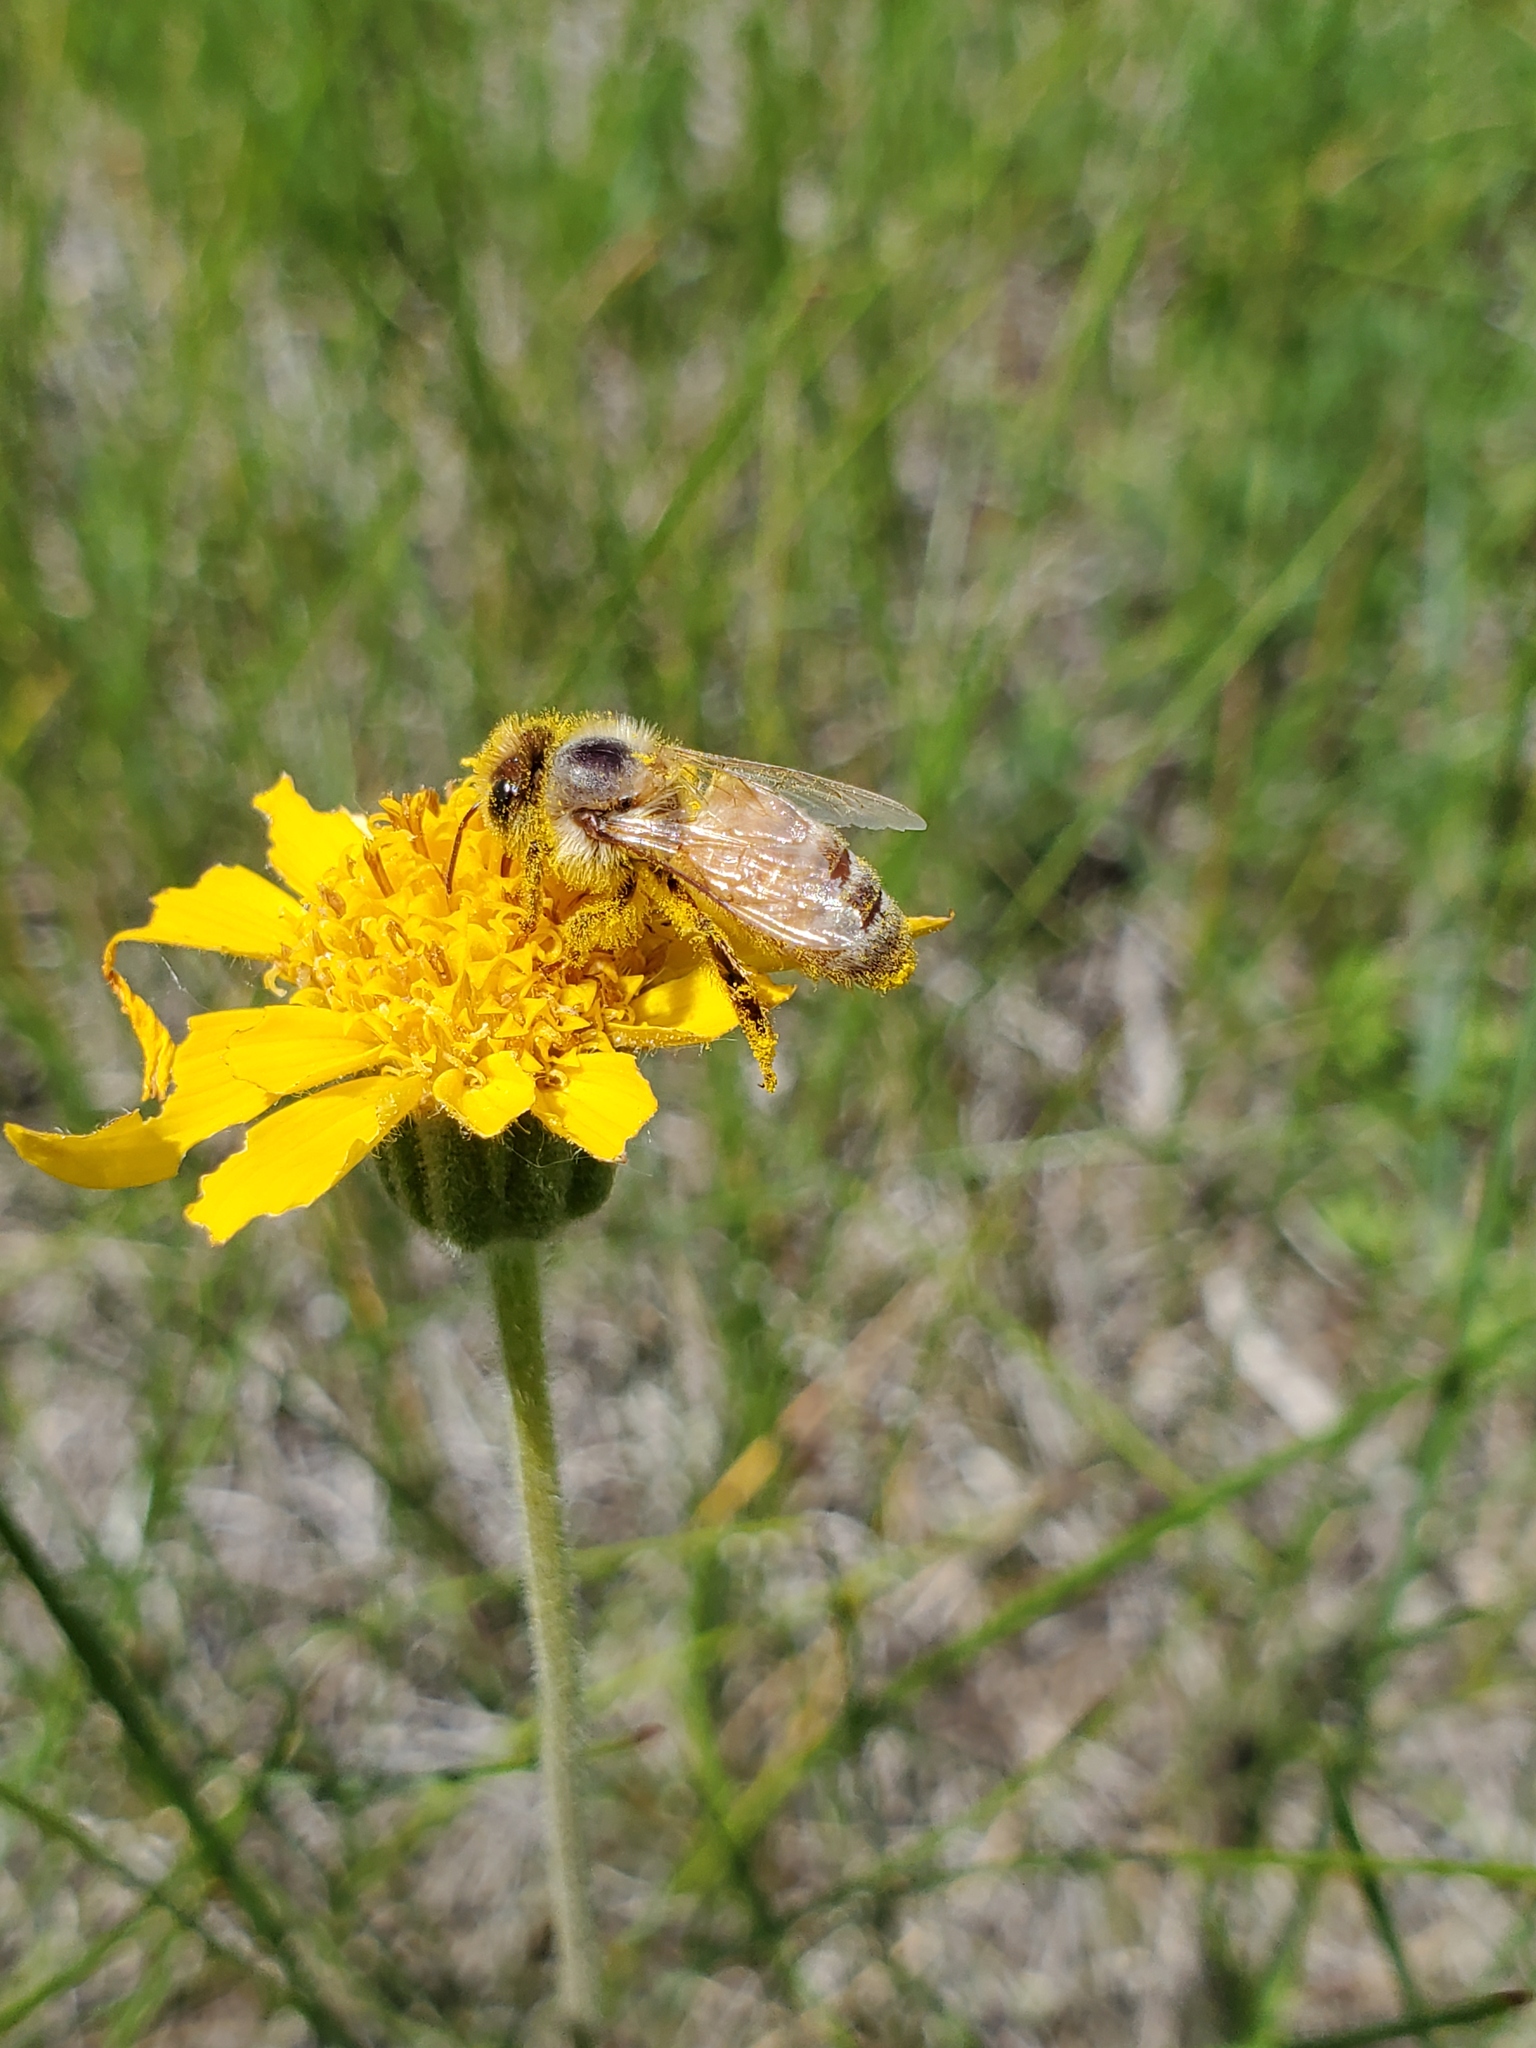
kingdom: Animalia
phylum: Arthropoda
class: Insecta
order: Hymenoptera
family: Apidae
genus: Apis
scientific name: Apis mellifera
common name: Honey bee
